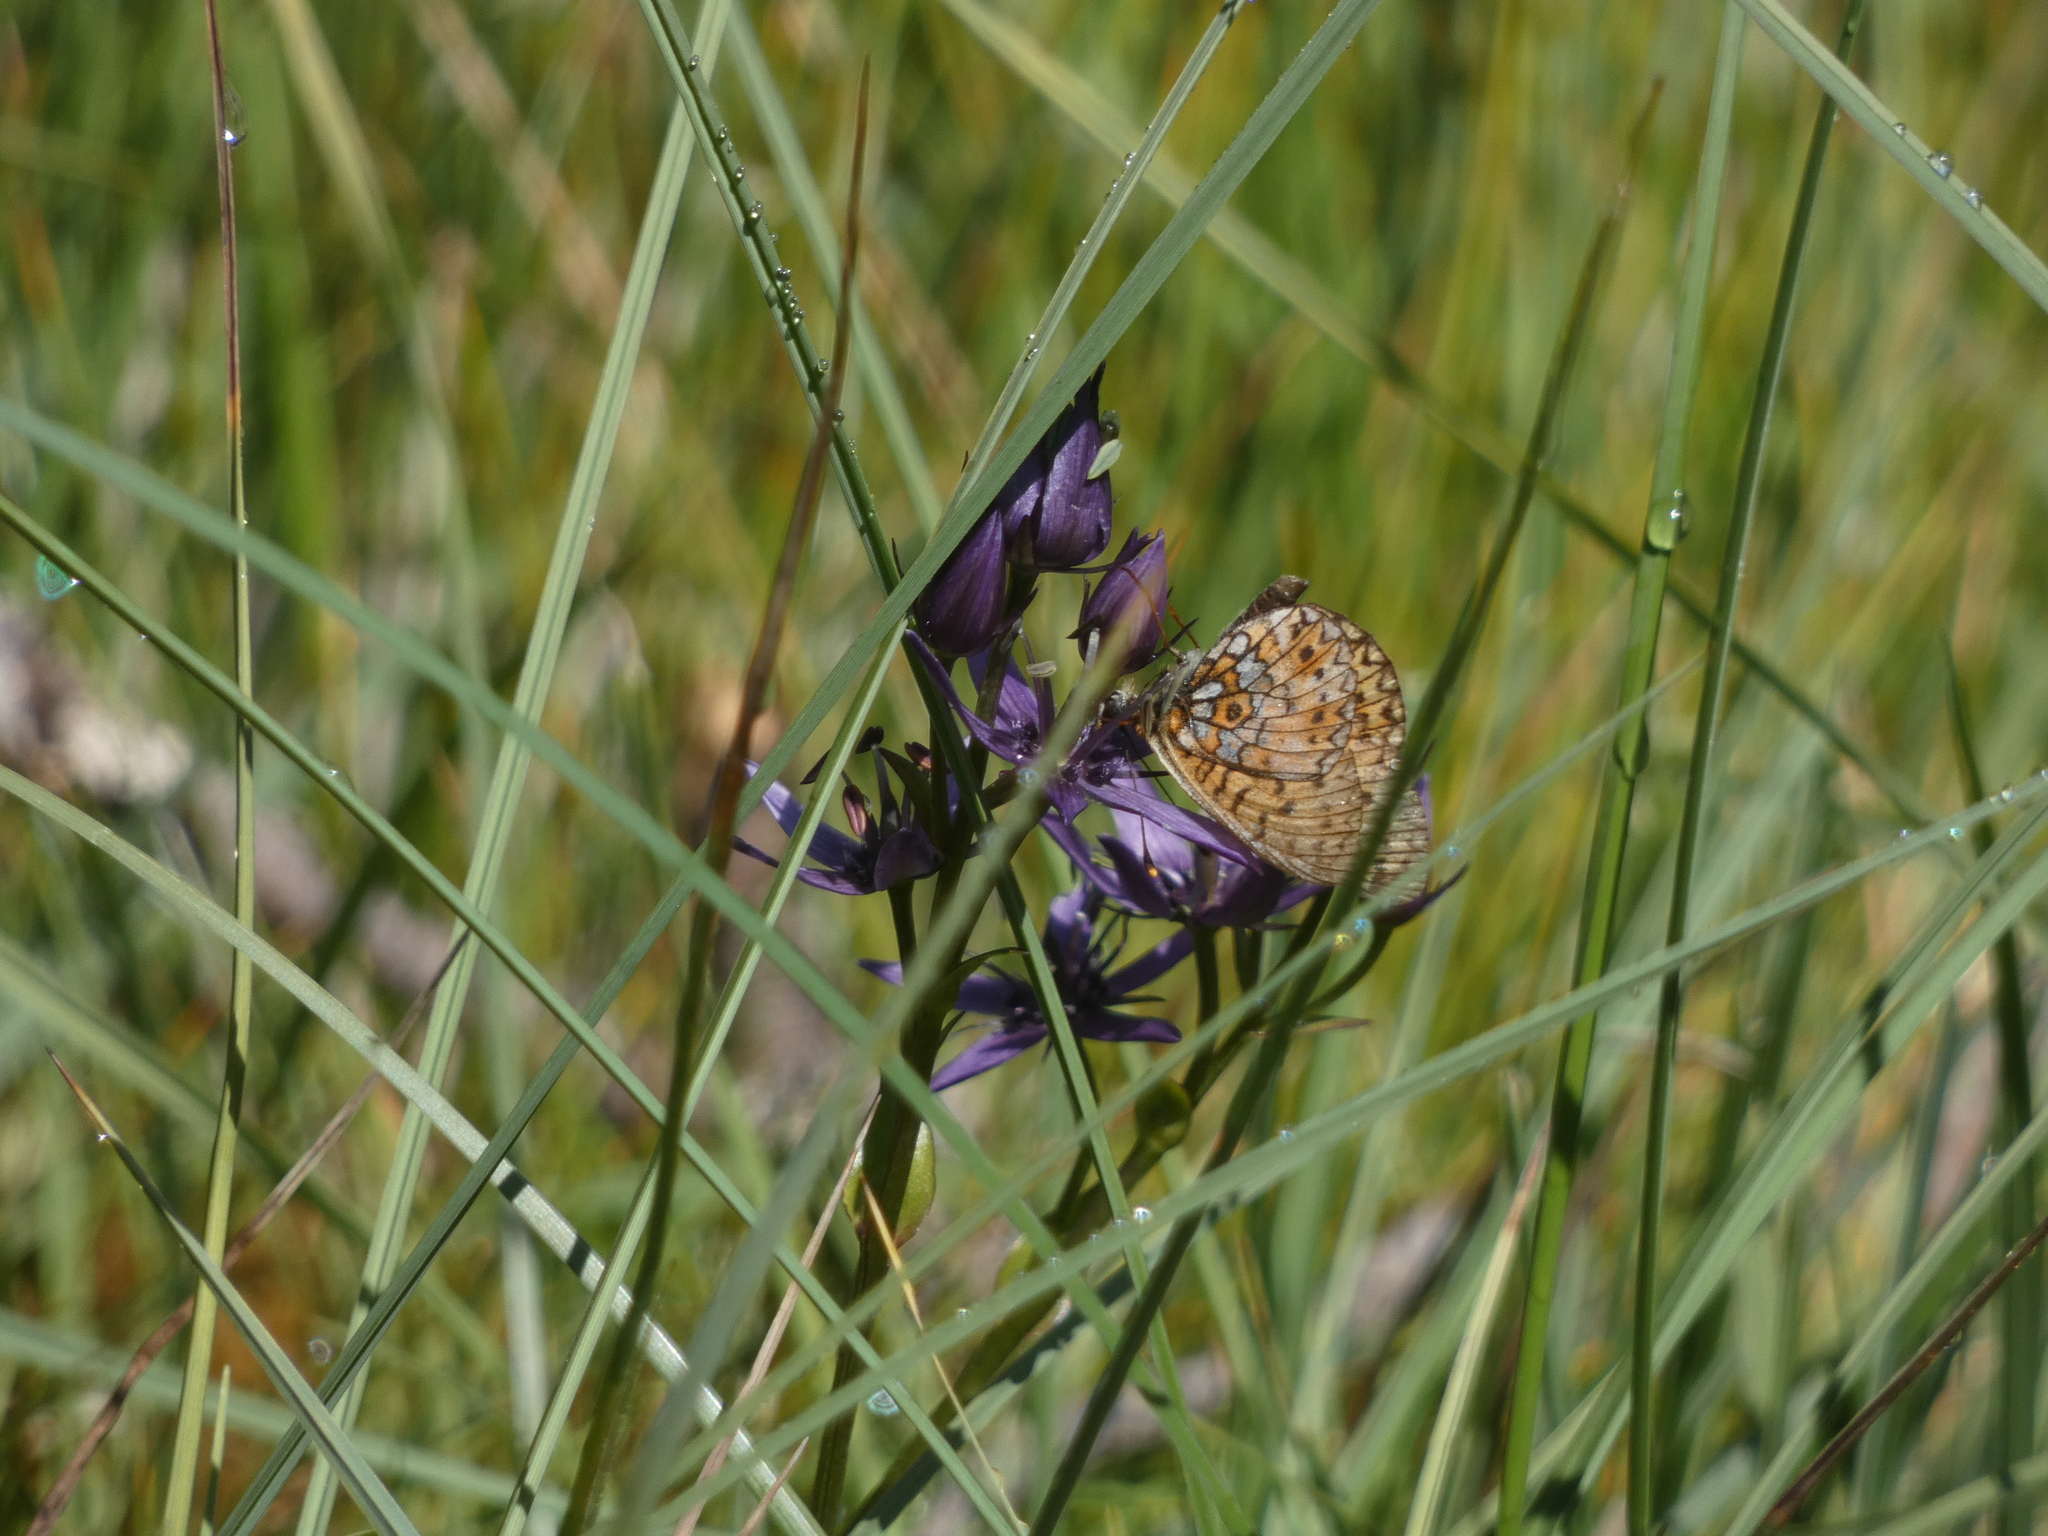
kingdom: Animalia
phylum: Arthropoda
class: Insecta
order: Lepidoptera
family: Nymphalidae
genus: Boloria
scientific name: Boloria selene
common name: Small pearl-bordered fritillary
